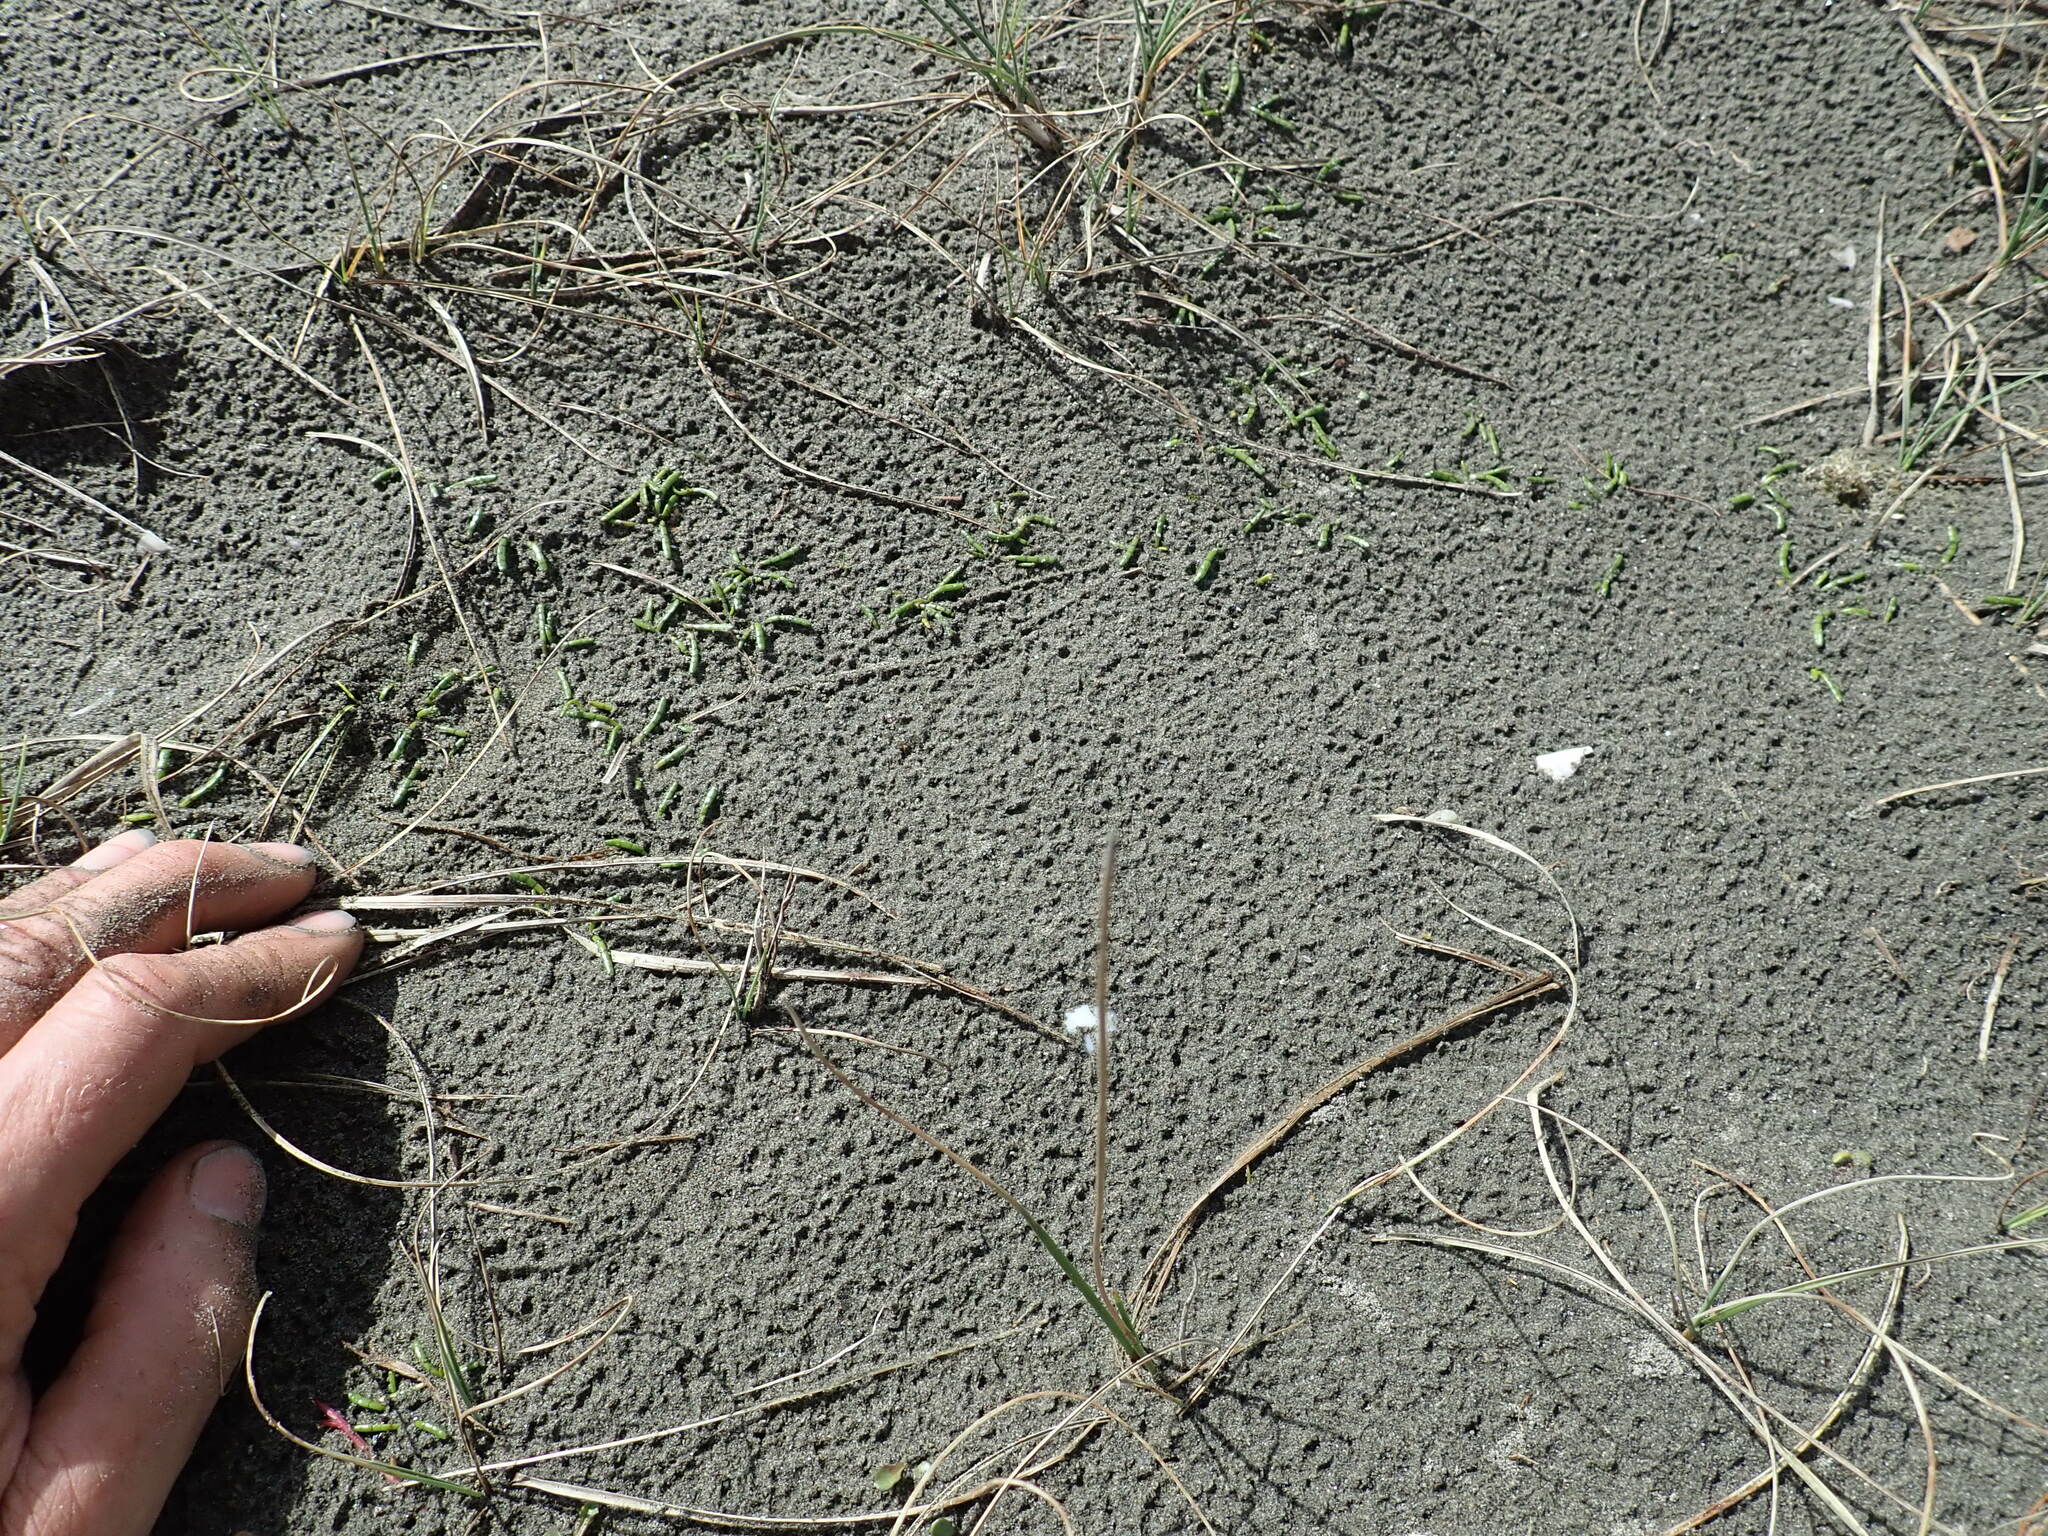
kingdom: Plantae
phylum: Tracheophyta
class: Magnoliopsida
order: Apiales
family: Apiaceae
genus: Lilaeopsis
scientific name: Lilaeopsis novae-zelandiae
